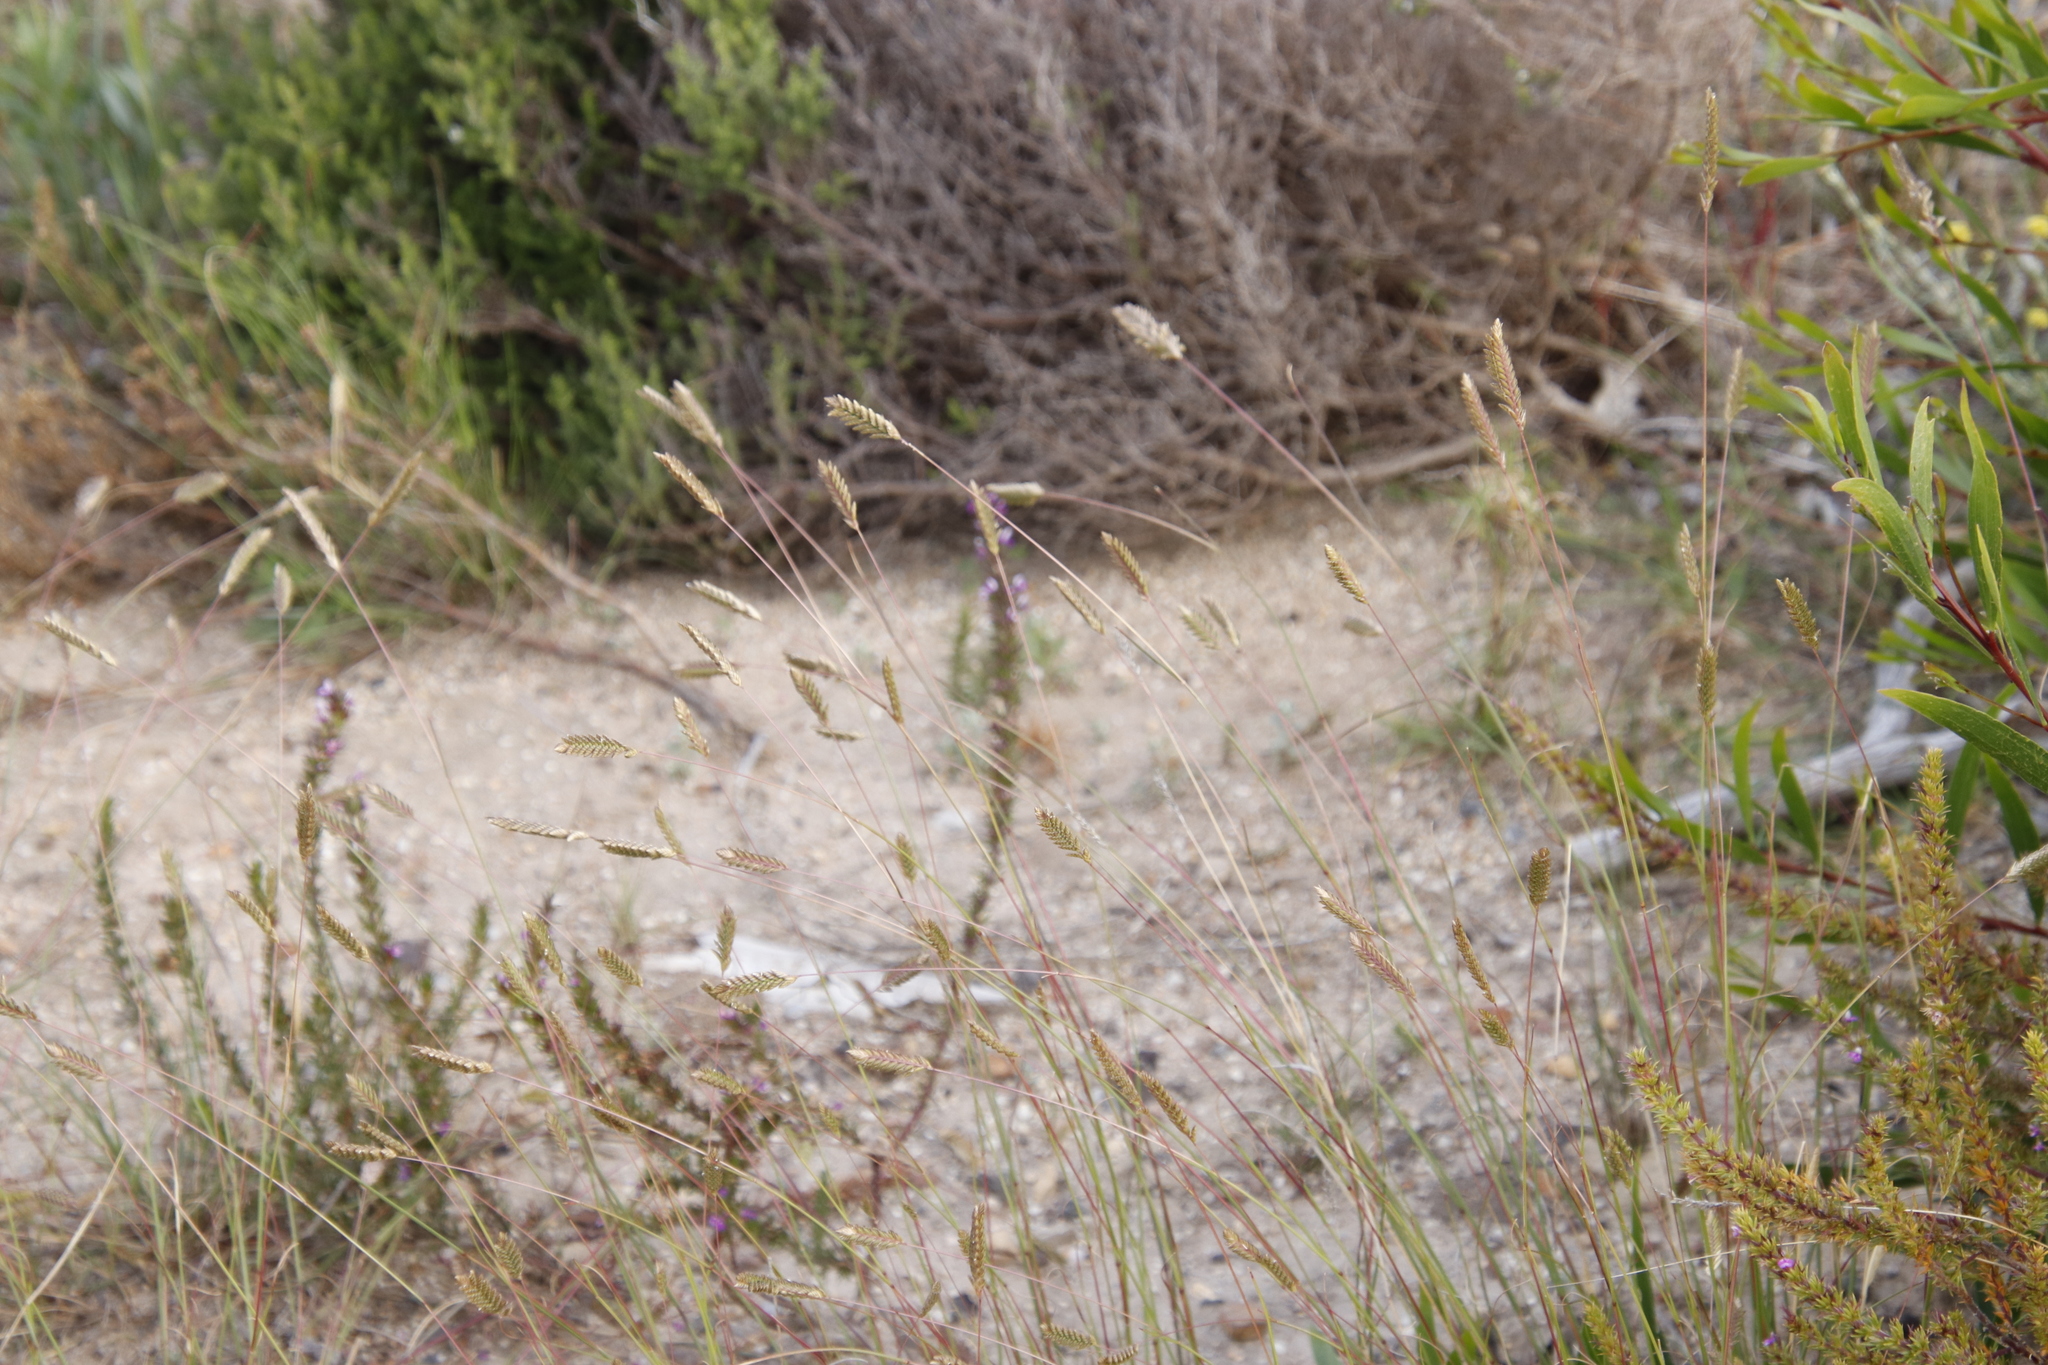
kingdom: Plantae
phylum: Tracheophyta
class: Liliopsida
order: Poales
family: Poaceae
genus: Tribolium
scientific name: Tribolium uniolae
